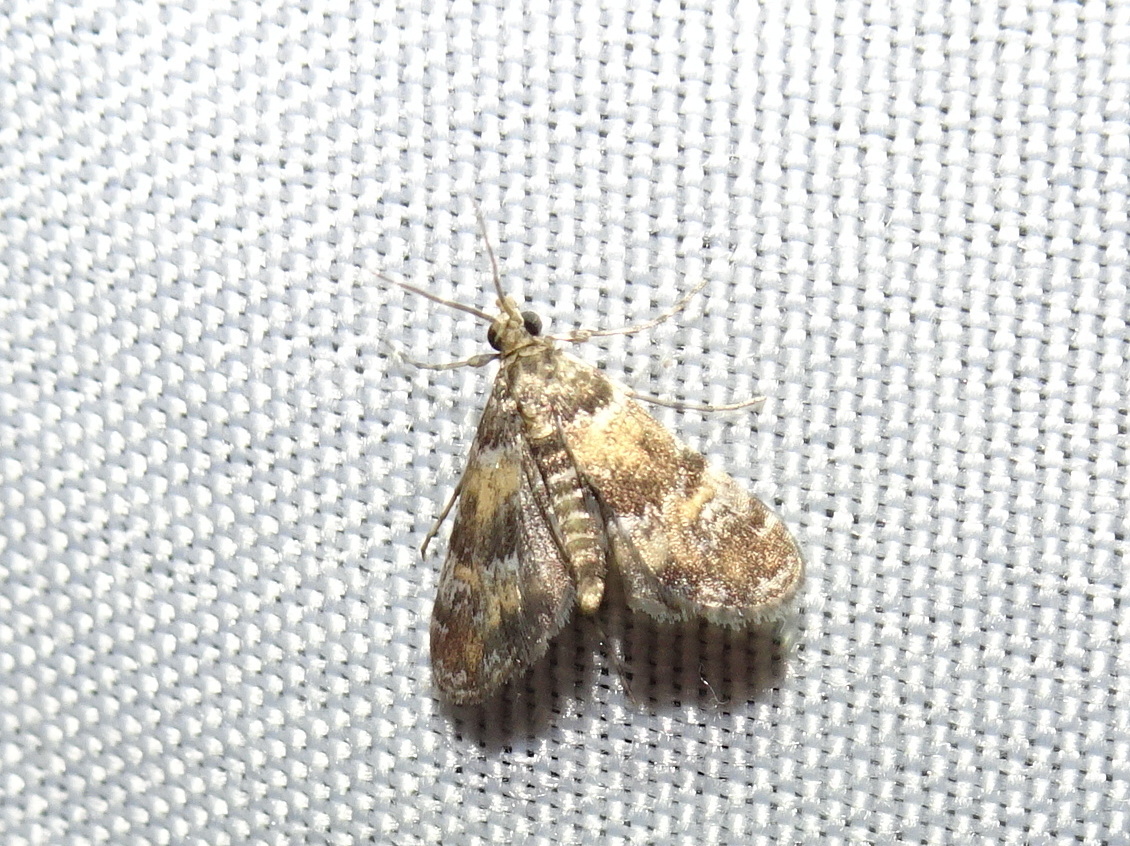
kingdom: Animalia
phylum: Arthropoda
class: Insecta
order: Lepidoptera
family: Crambidae
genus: Elophila
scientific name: Elophila obliteralis
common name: Waterlily leafcutter moth
